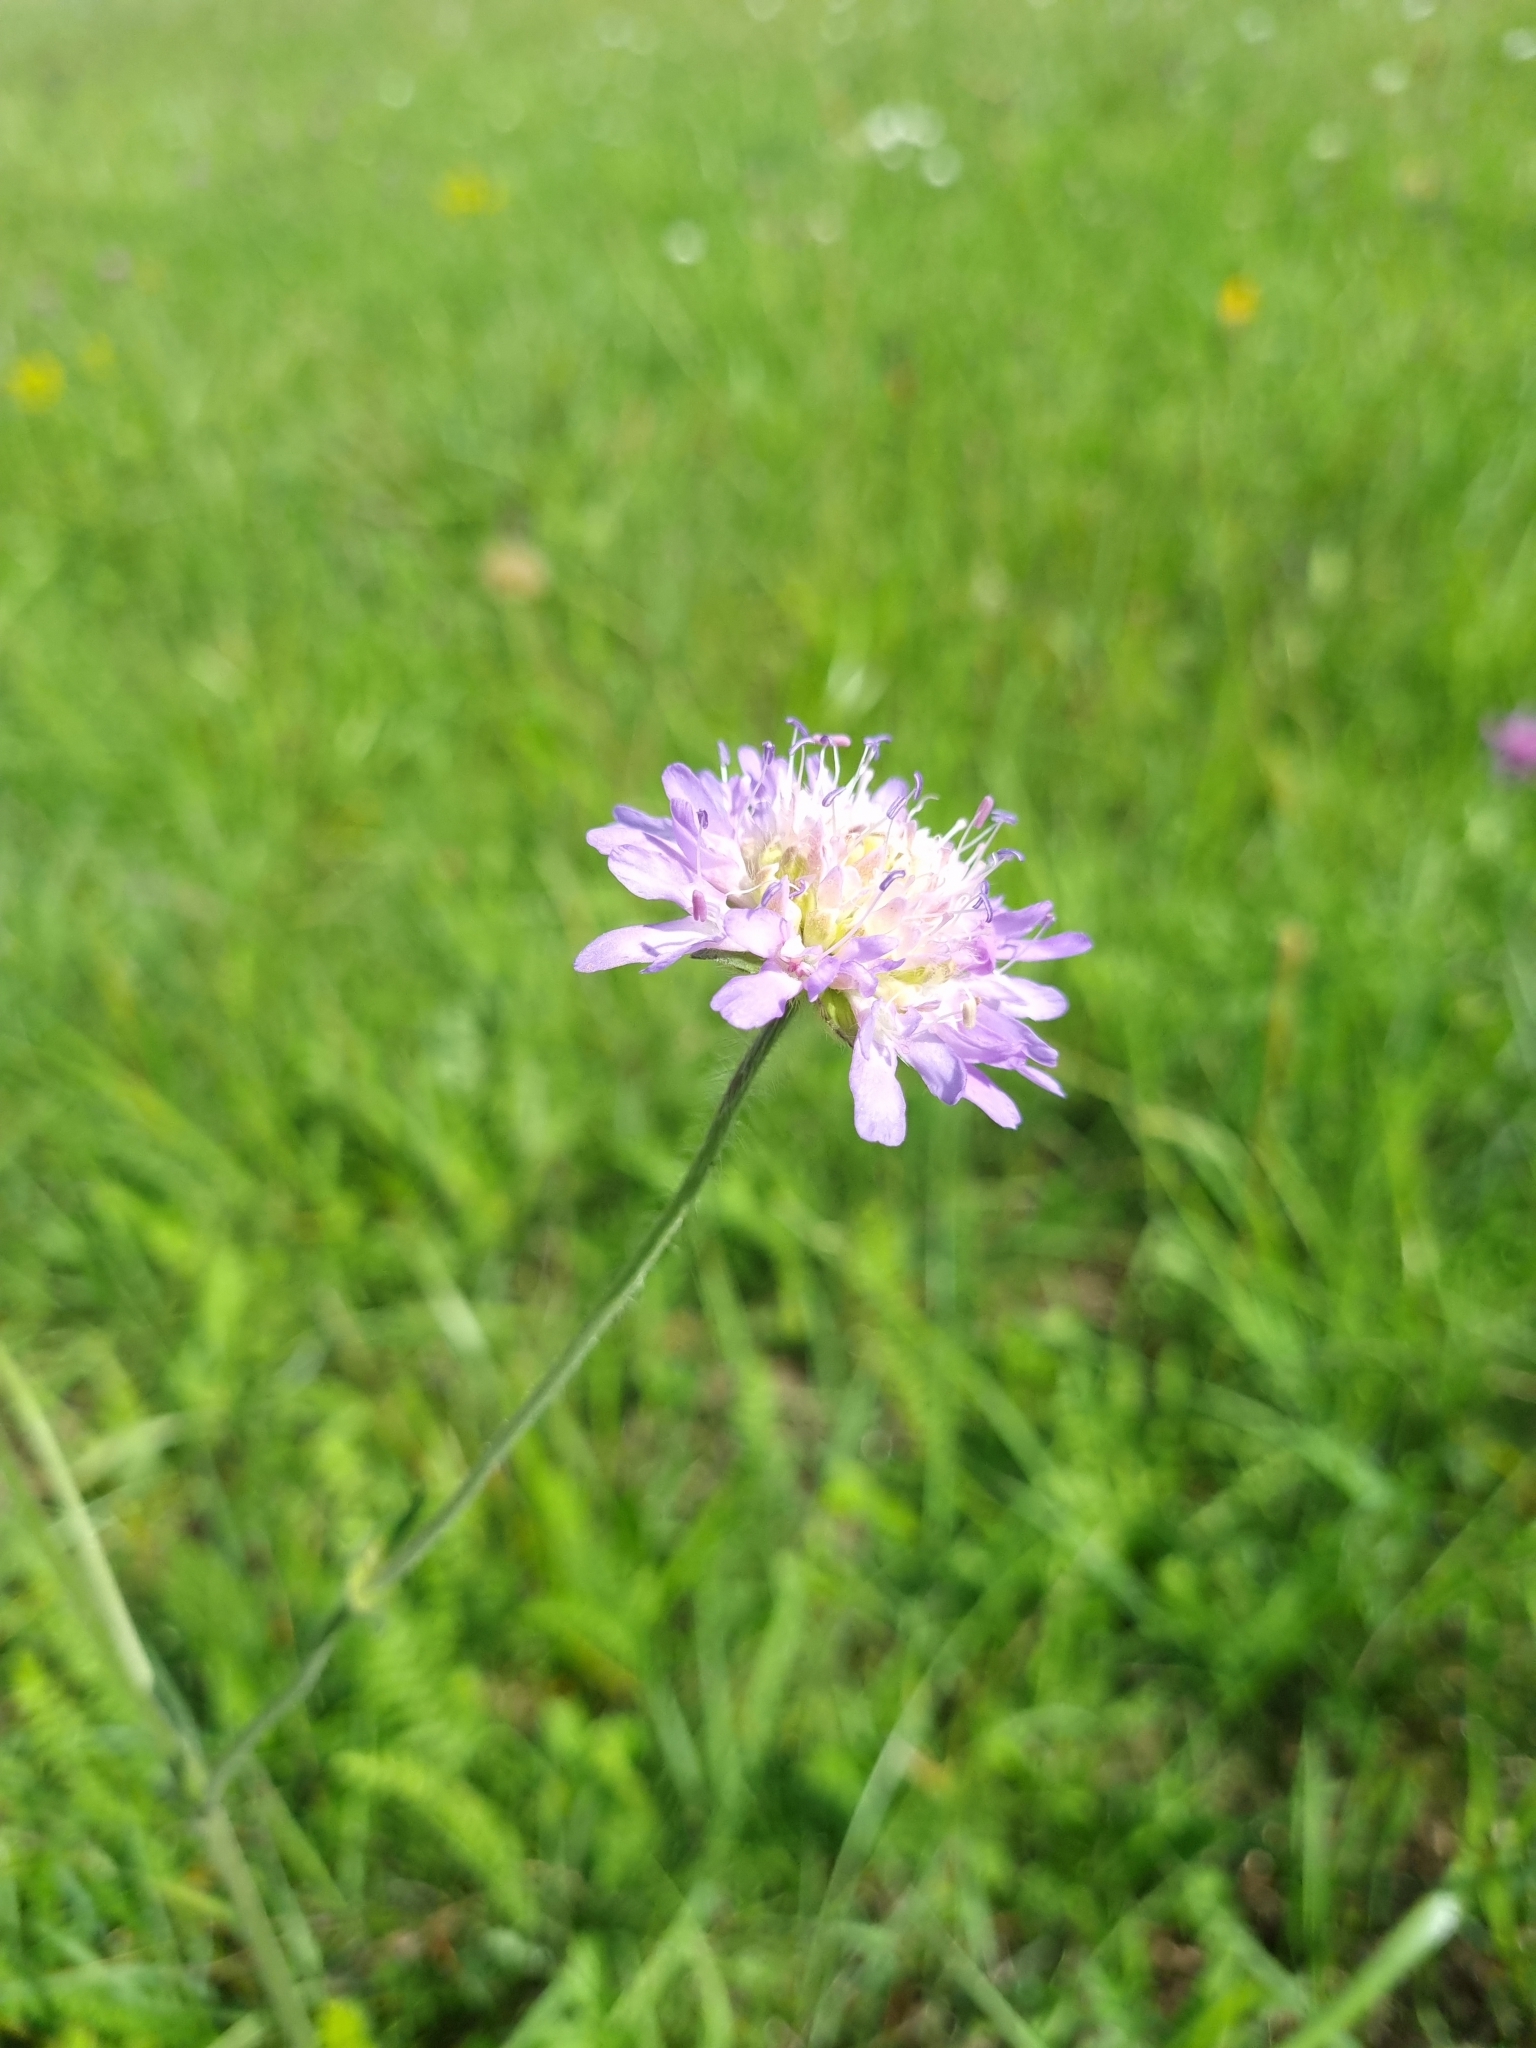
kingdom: Plantae
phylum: Tracheophyta
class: Magnoliopsida
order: Dipsacales
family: Caprifoliaceae
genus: Knautia
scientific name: Knautia arvensis
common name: Field scabiosa
